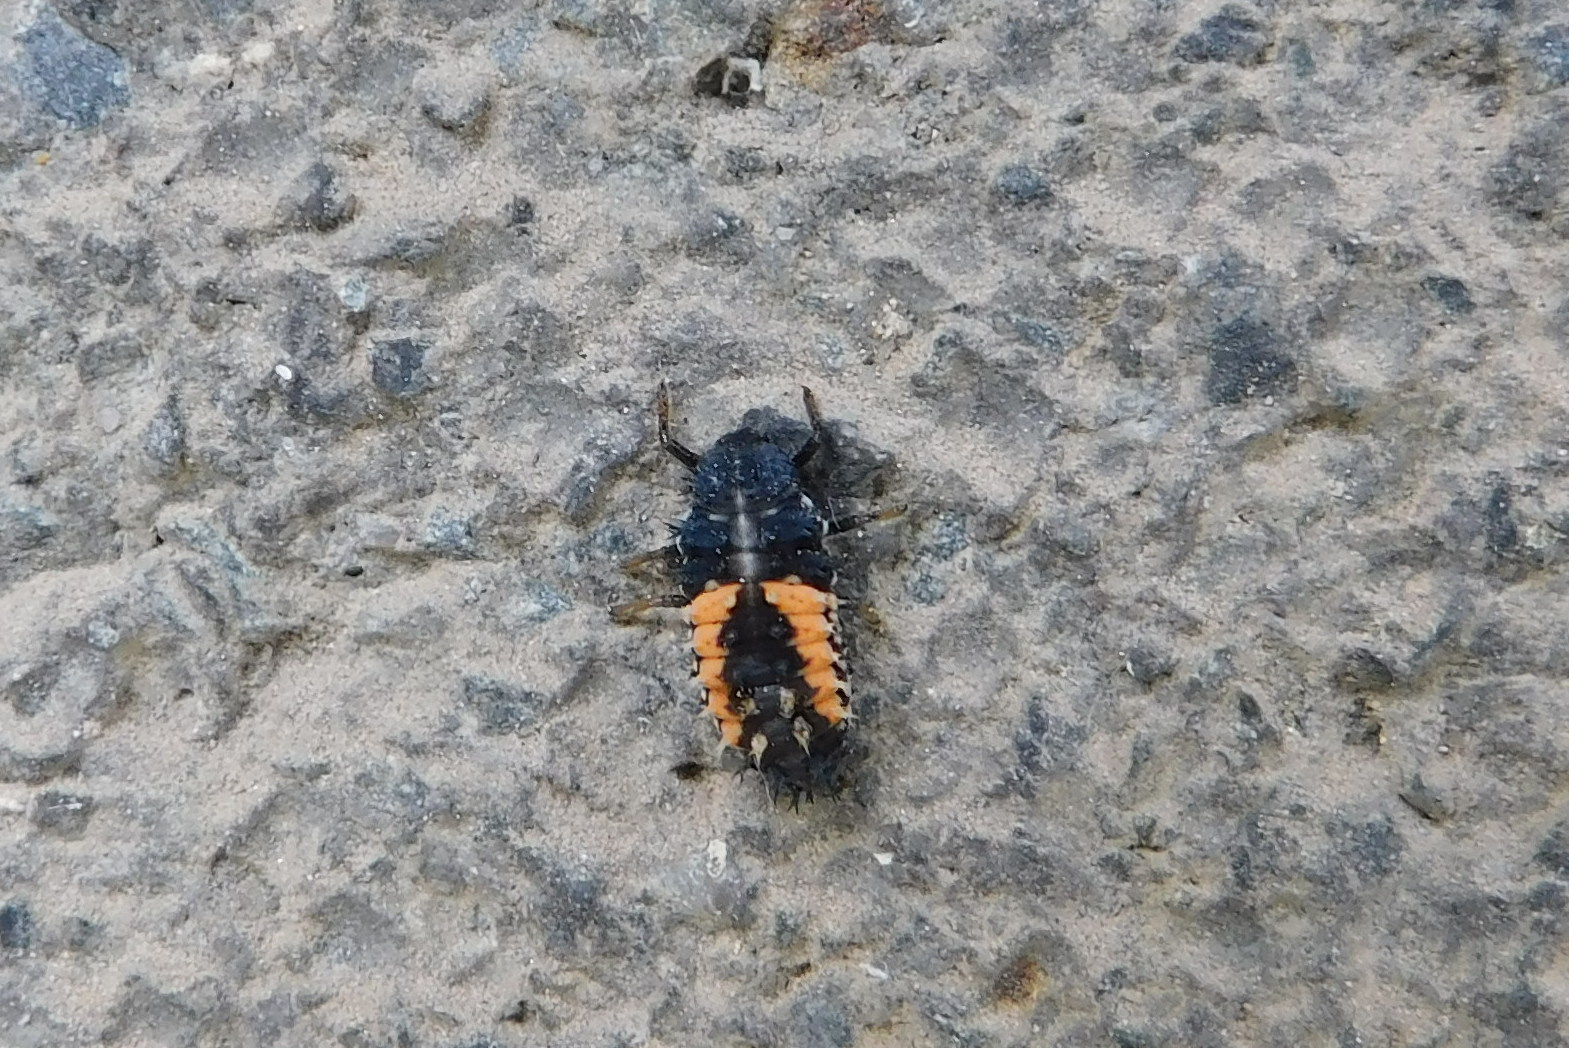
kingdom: Animalia
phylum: Arthropoda
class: Insecta
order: Coleoptera
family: Coccinellidae
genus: Harmonia
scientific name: Harmonia axyridis
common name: Harlequin ladybird
